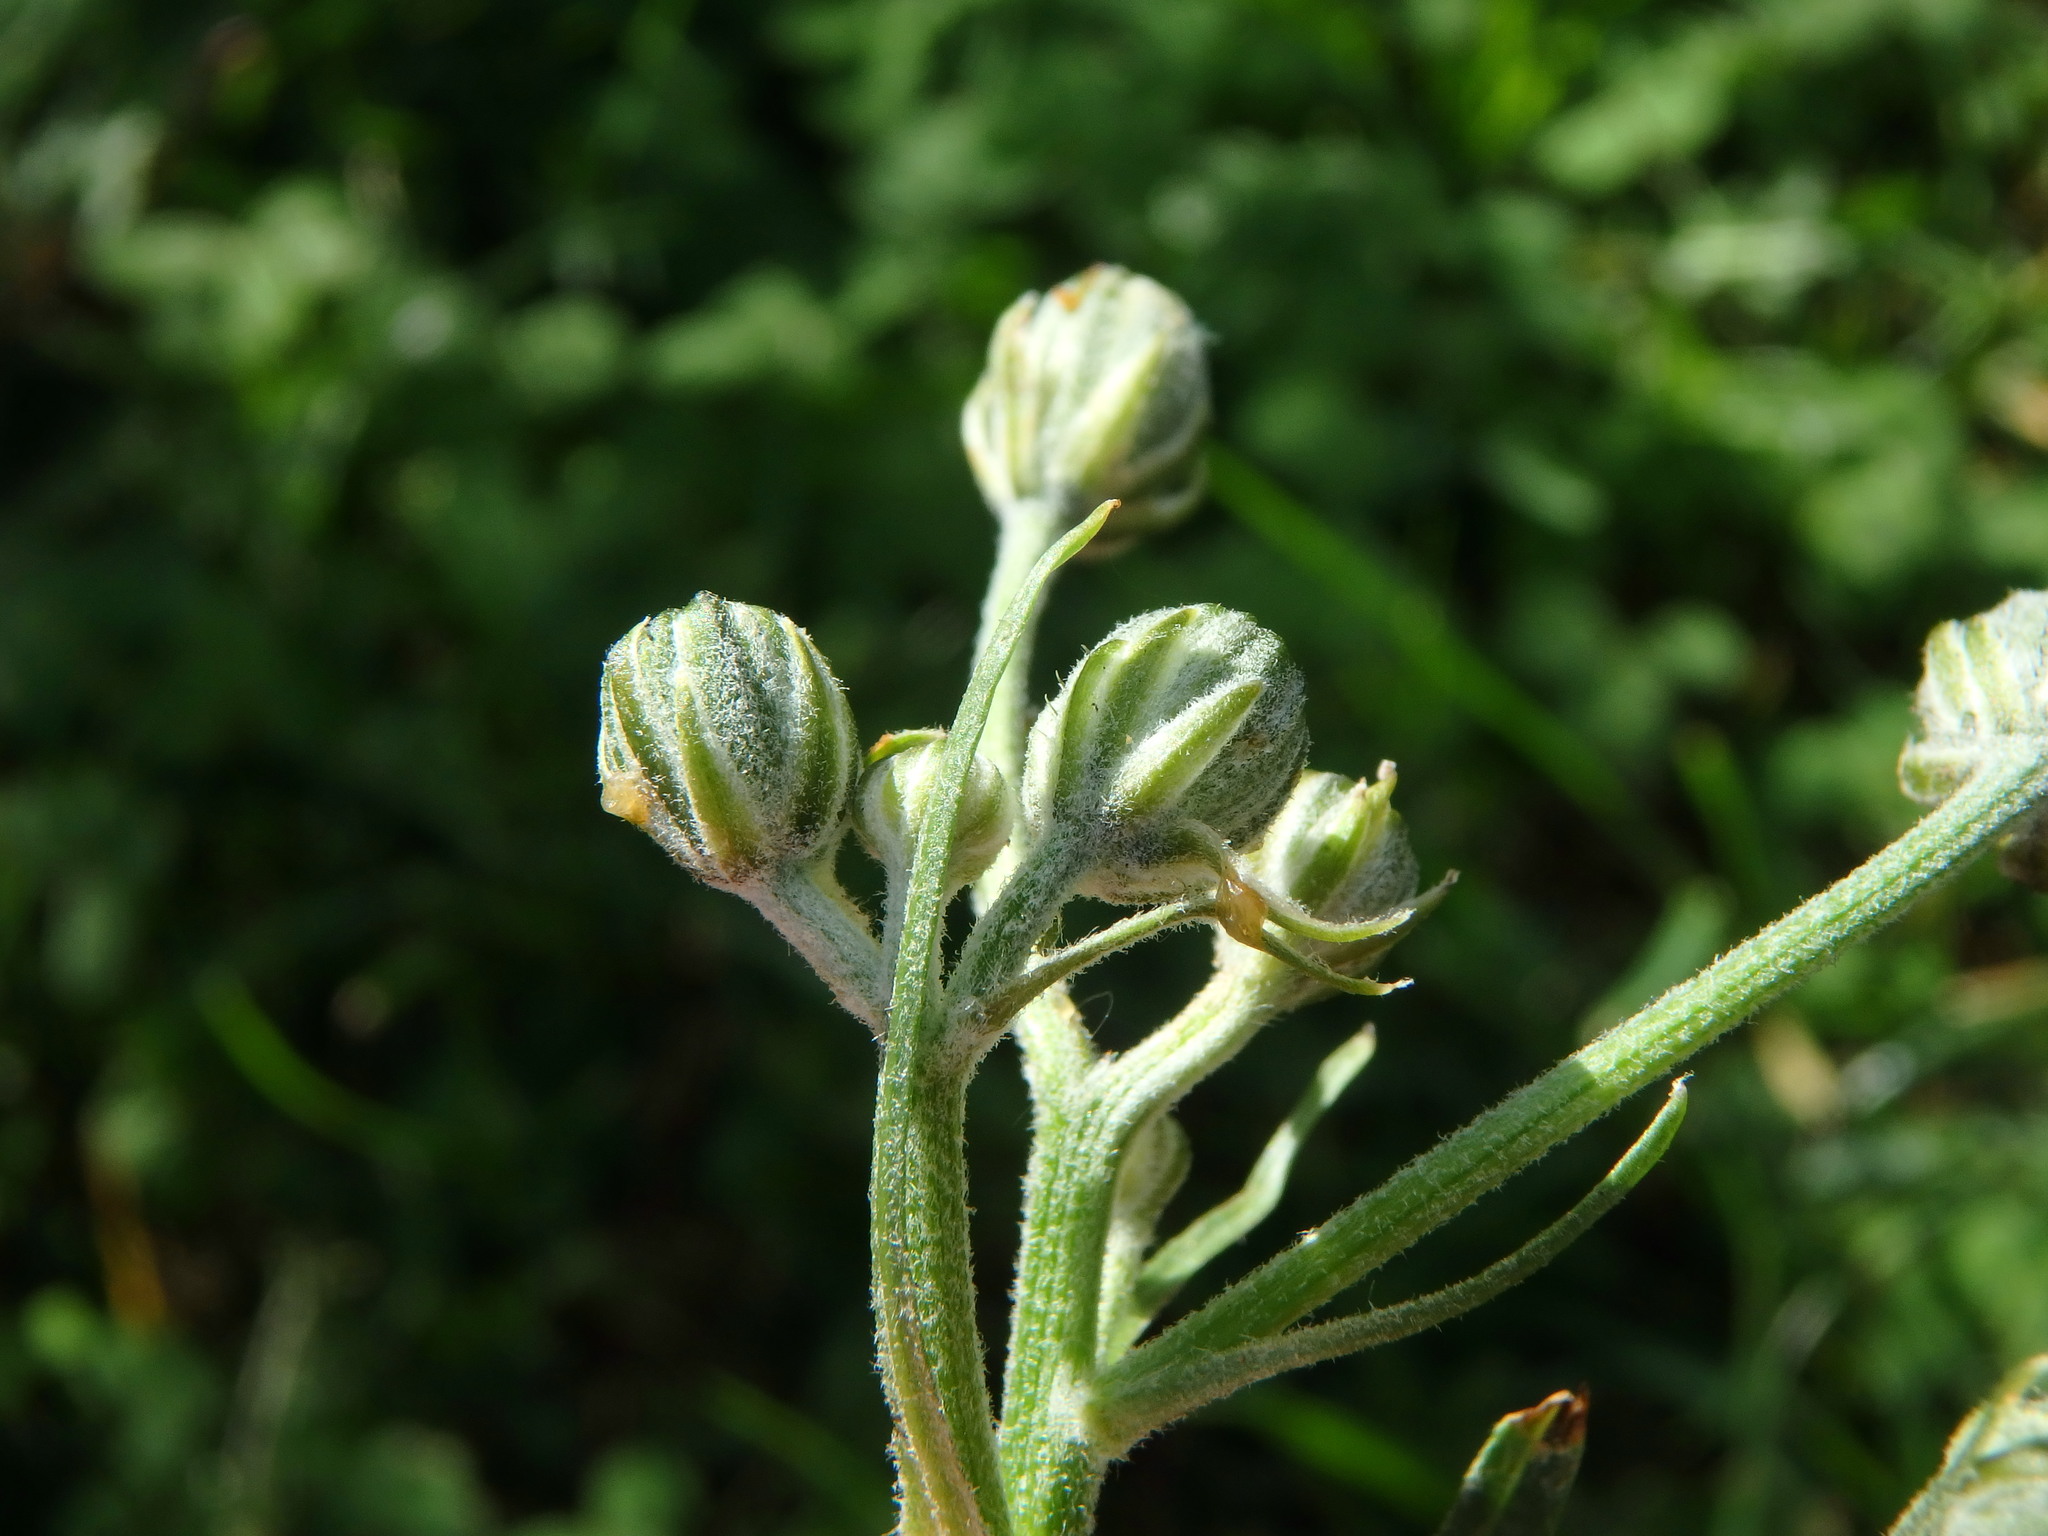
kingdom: Plantae
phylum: Tracheophyta
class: Magnoliopsida
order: Asterales
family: Asteraceae
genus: Crepis
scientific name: Crepis vesicaria
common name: Beaked hawksbeard
